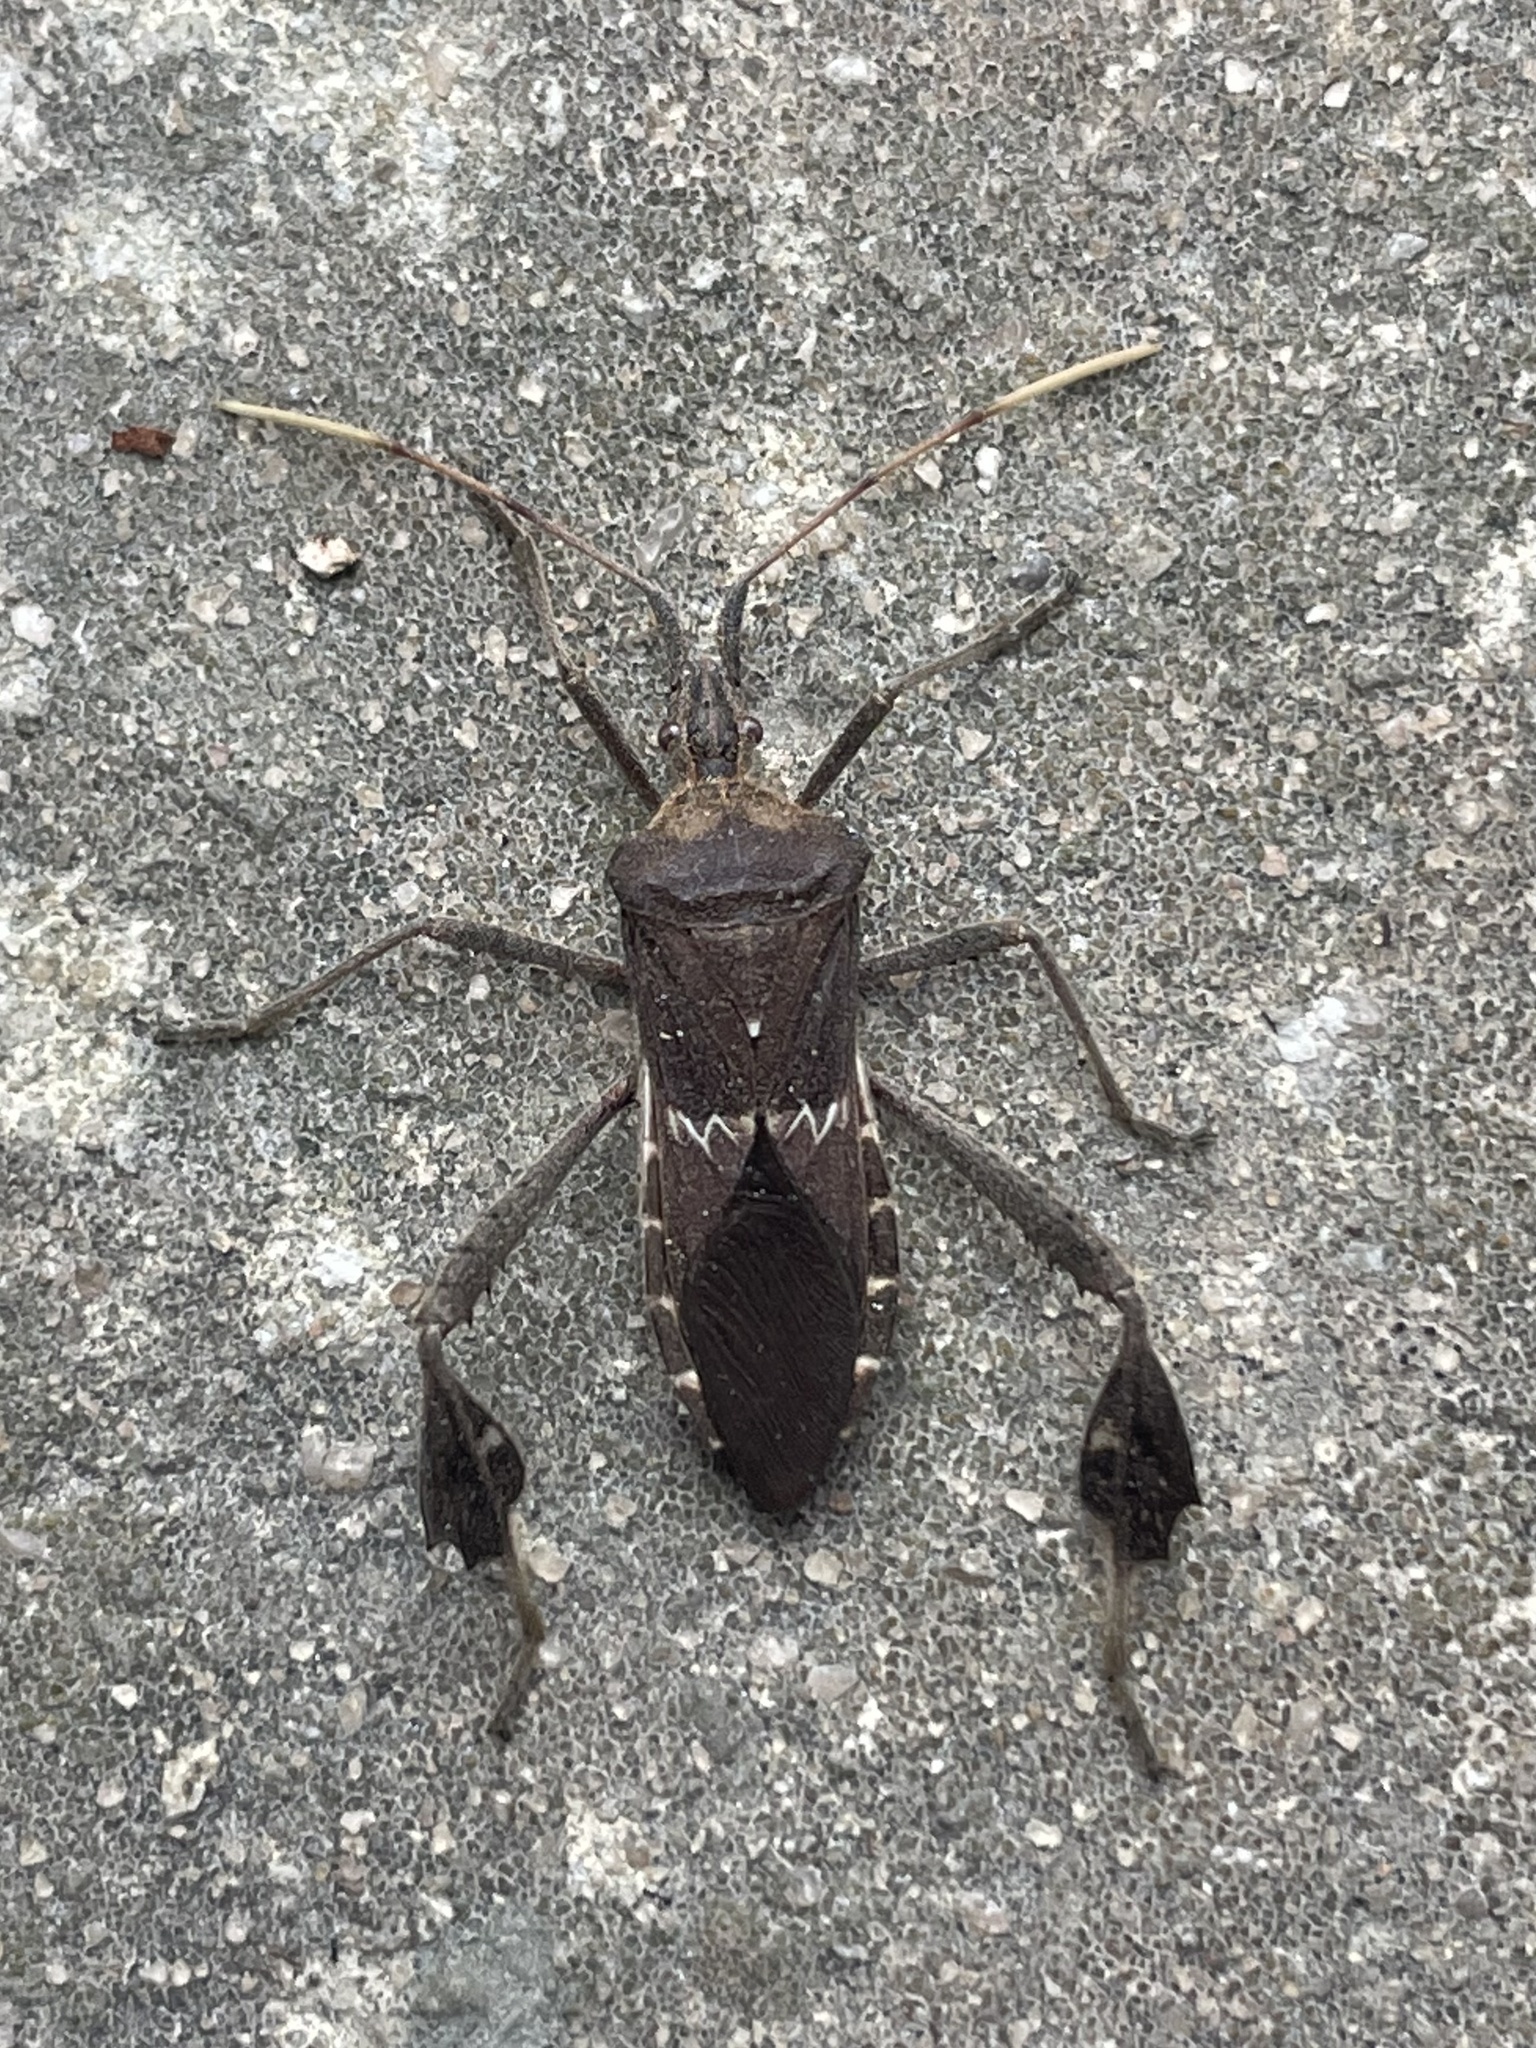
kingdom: Animalia
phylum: Arthropoda
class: Insecta
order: Hemiptera
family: Coreidae
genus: Leptoglossus
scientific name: Leptoglossus zonatus
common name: Large-legged bug
